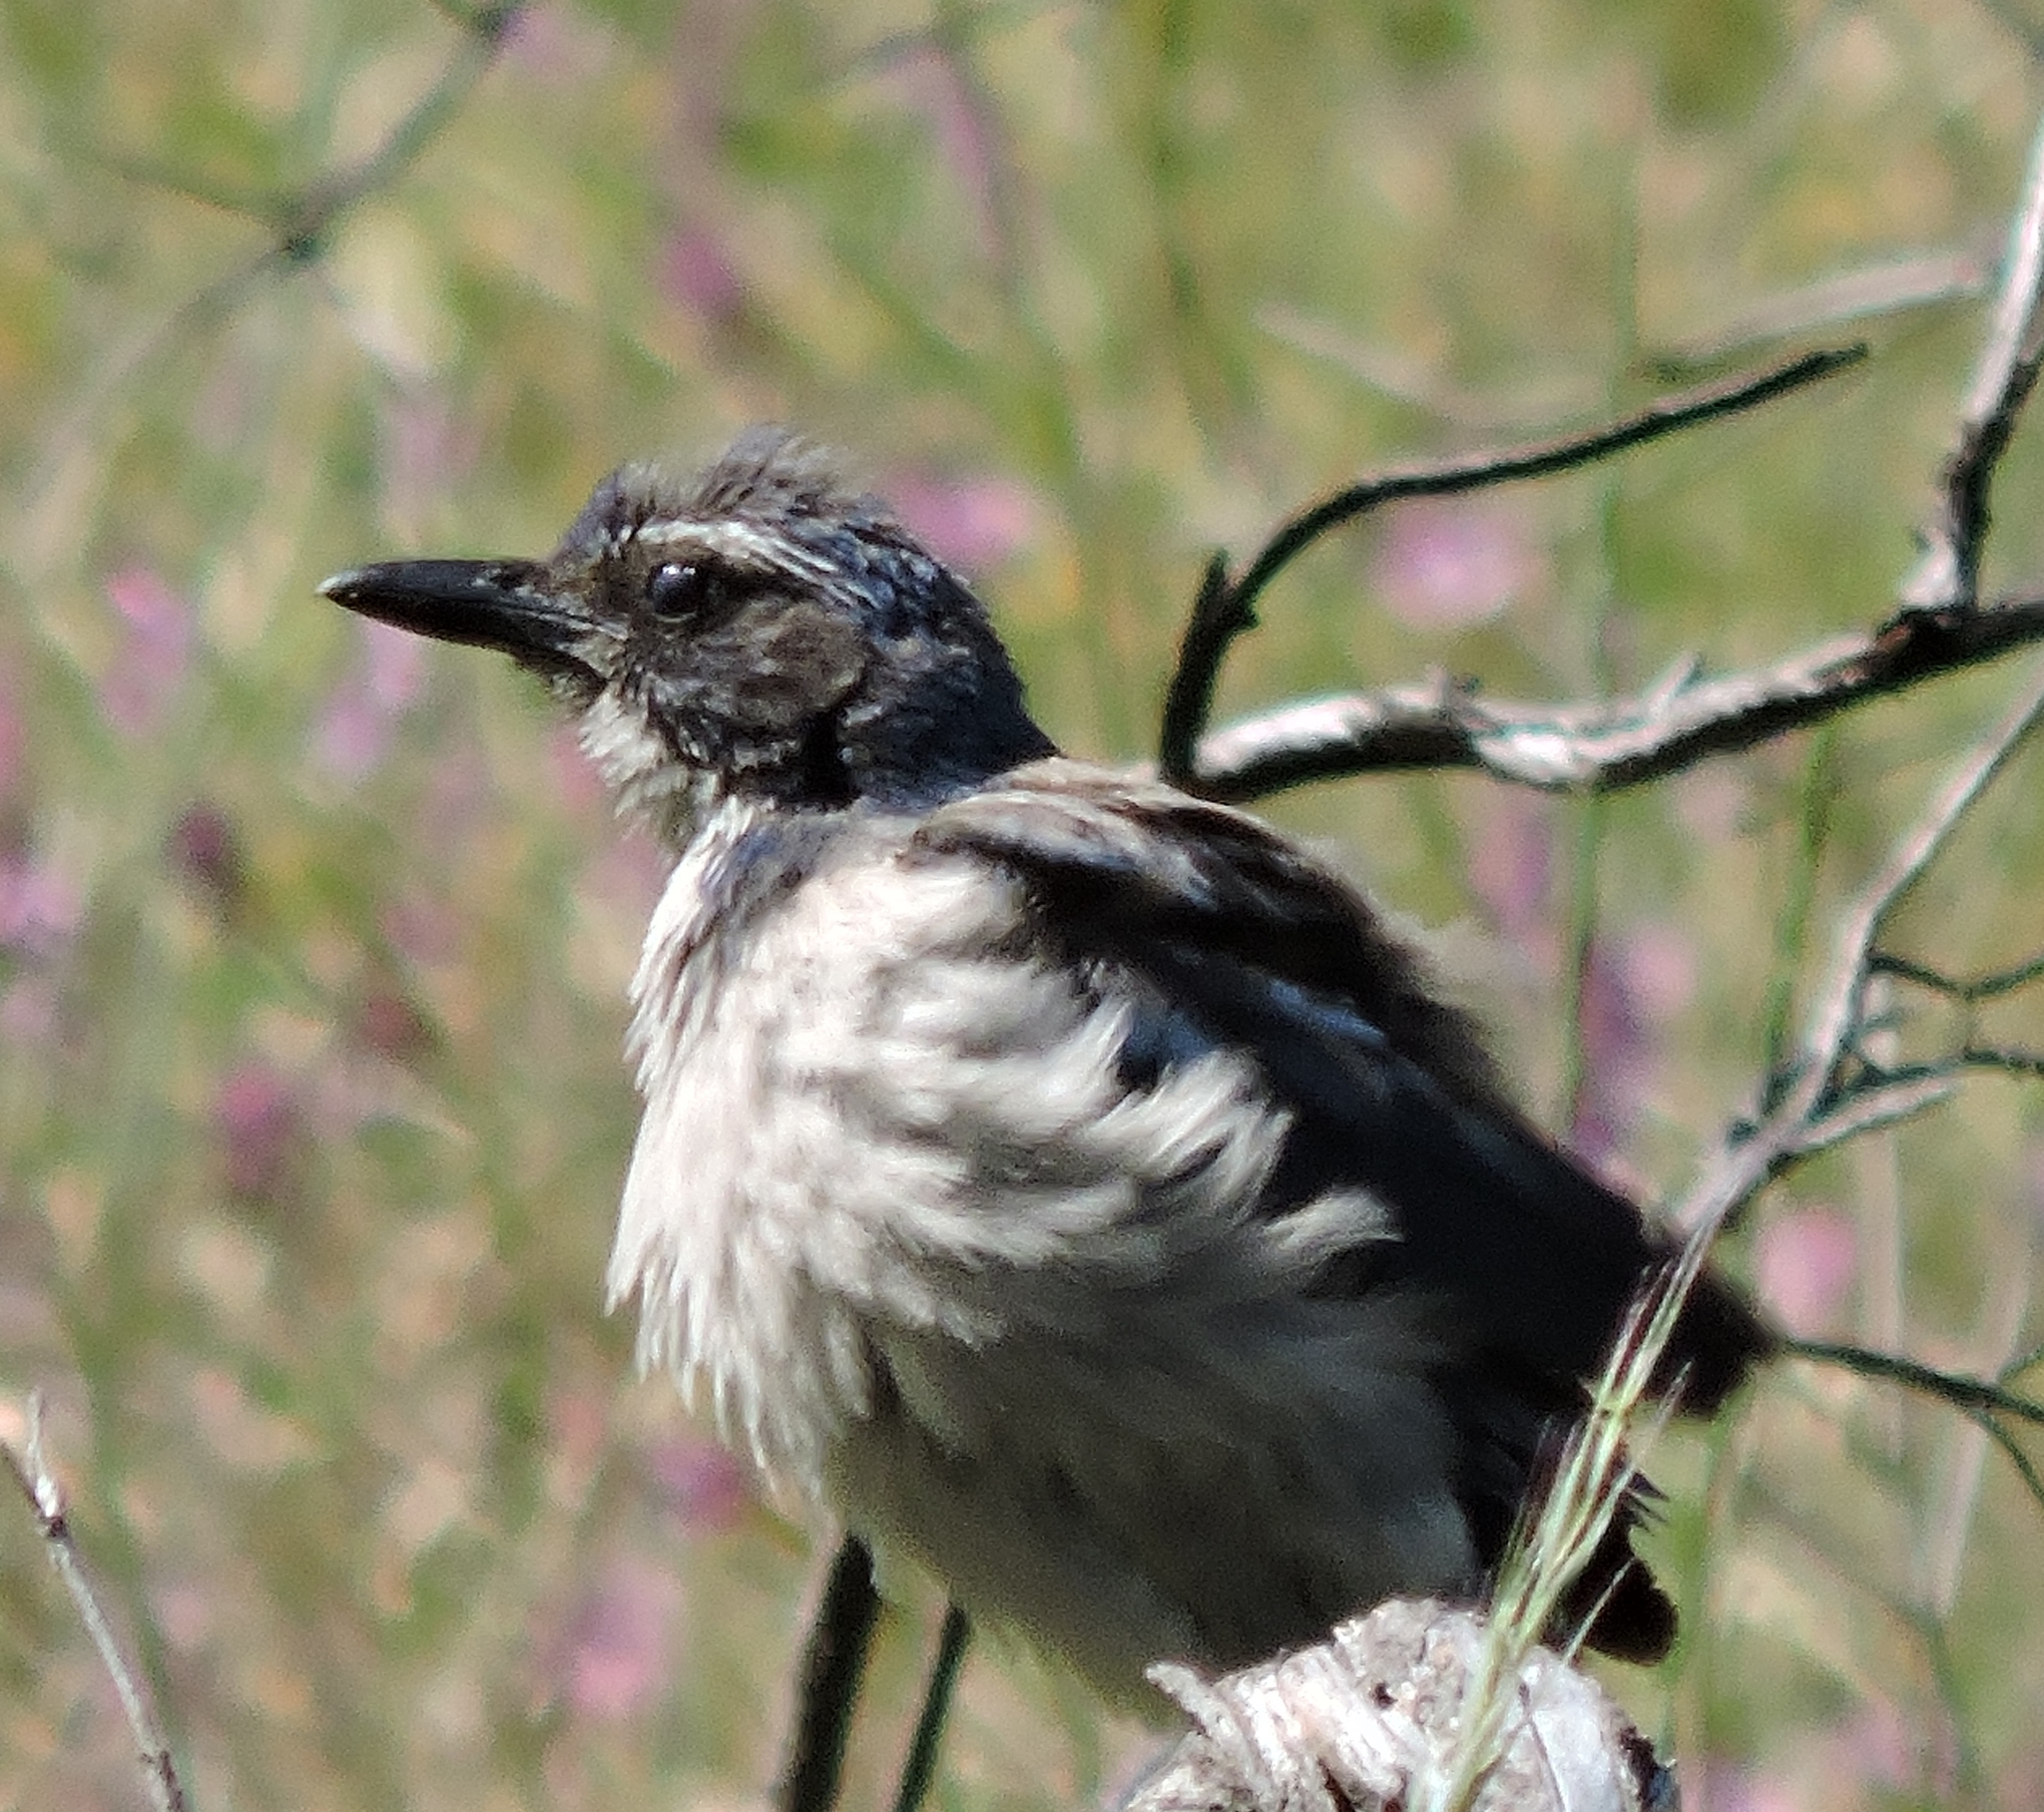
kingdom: Animalia
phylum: Chordata
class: Aves
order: Passeriformes
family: Corvidae
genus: Aphelocoma
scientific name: Aphelocoma californica
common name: California scrub-jay
